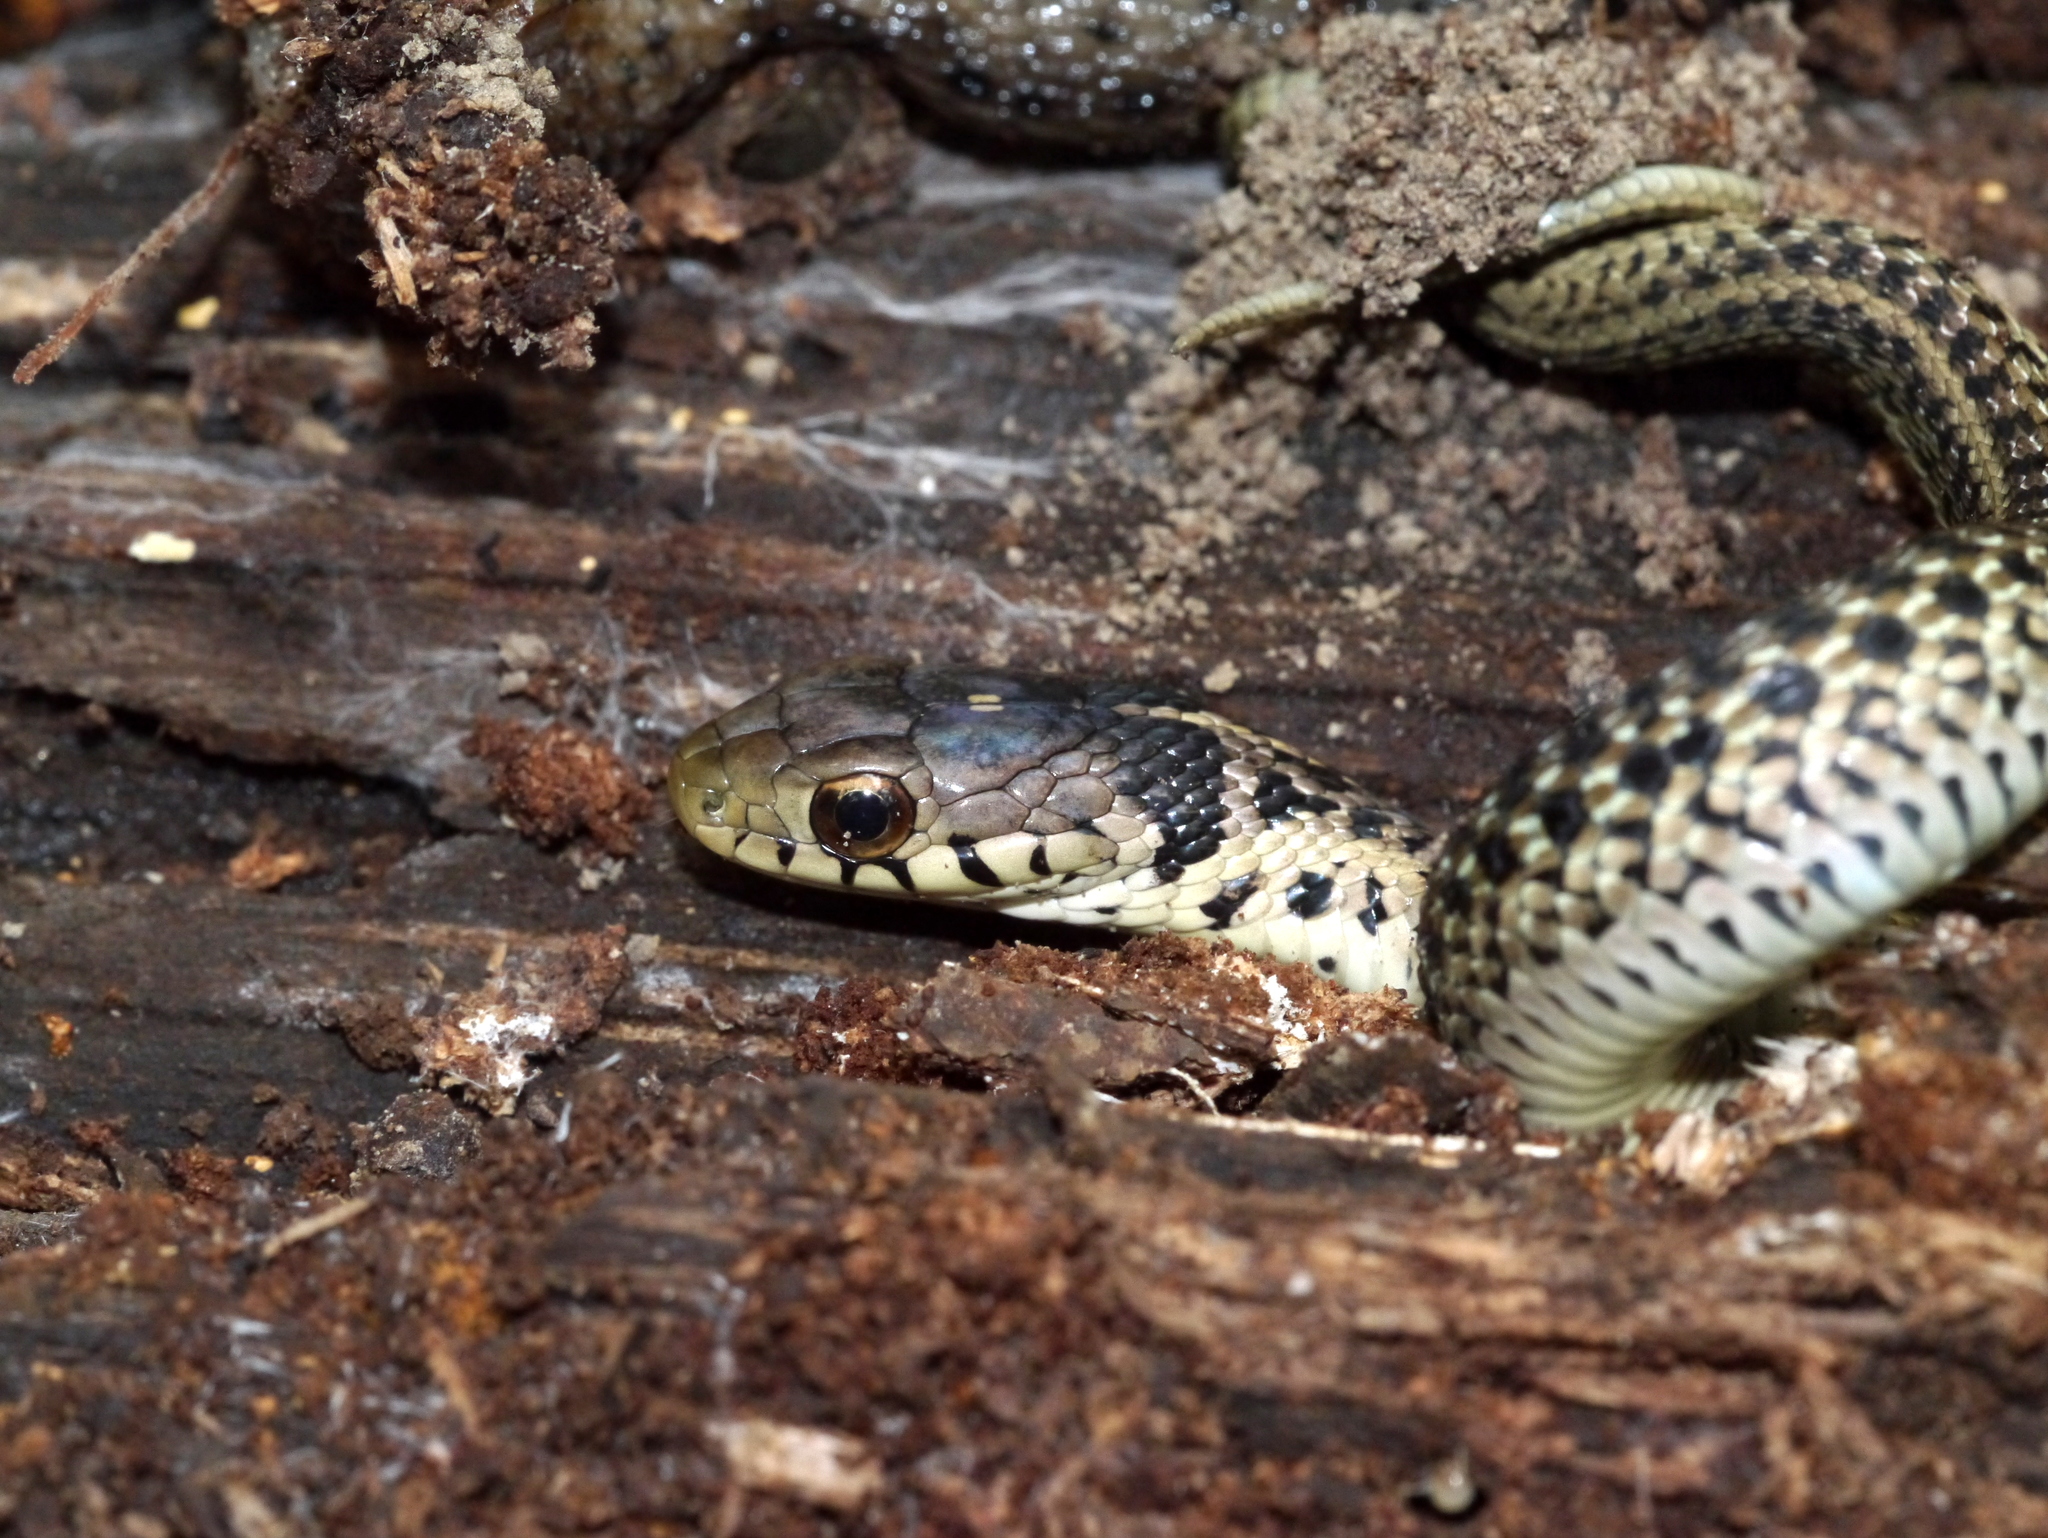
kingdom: Animalia
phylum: Chordata
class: Squamata
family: Colubridae
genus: Thamnophis
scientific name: Thamnophis sirtalis
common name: Common garter snake
